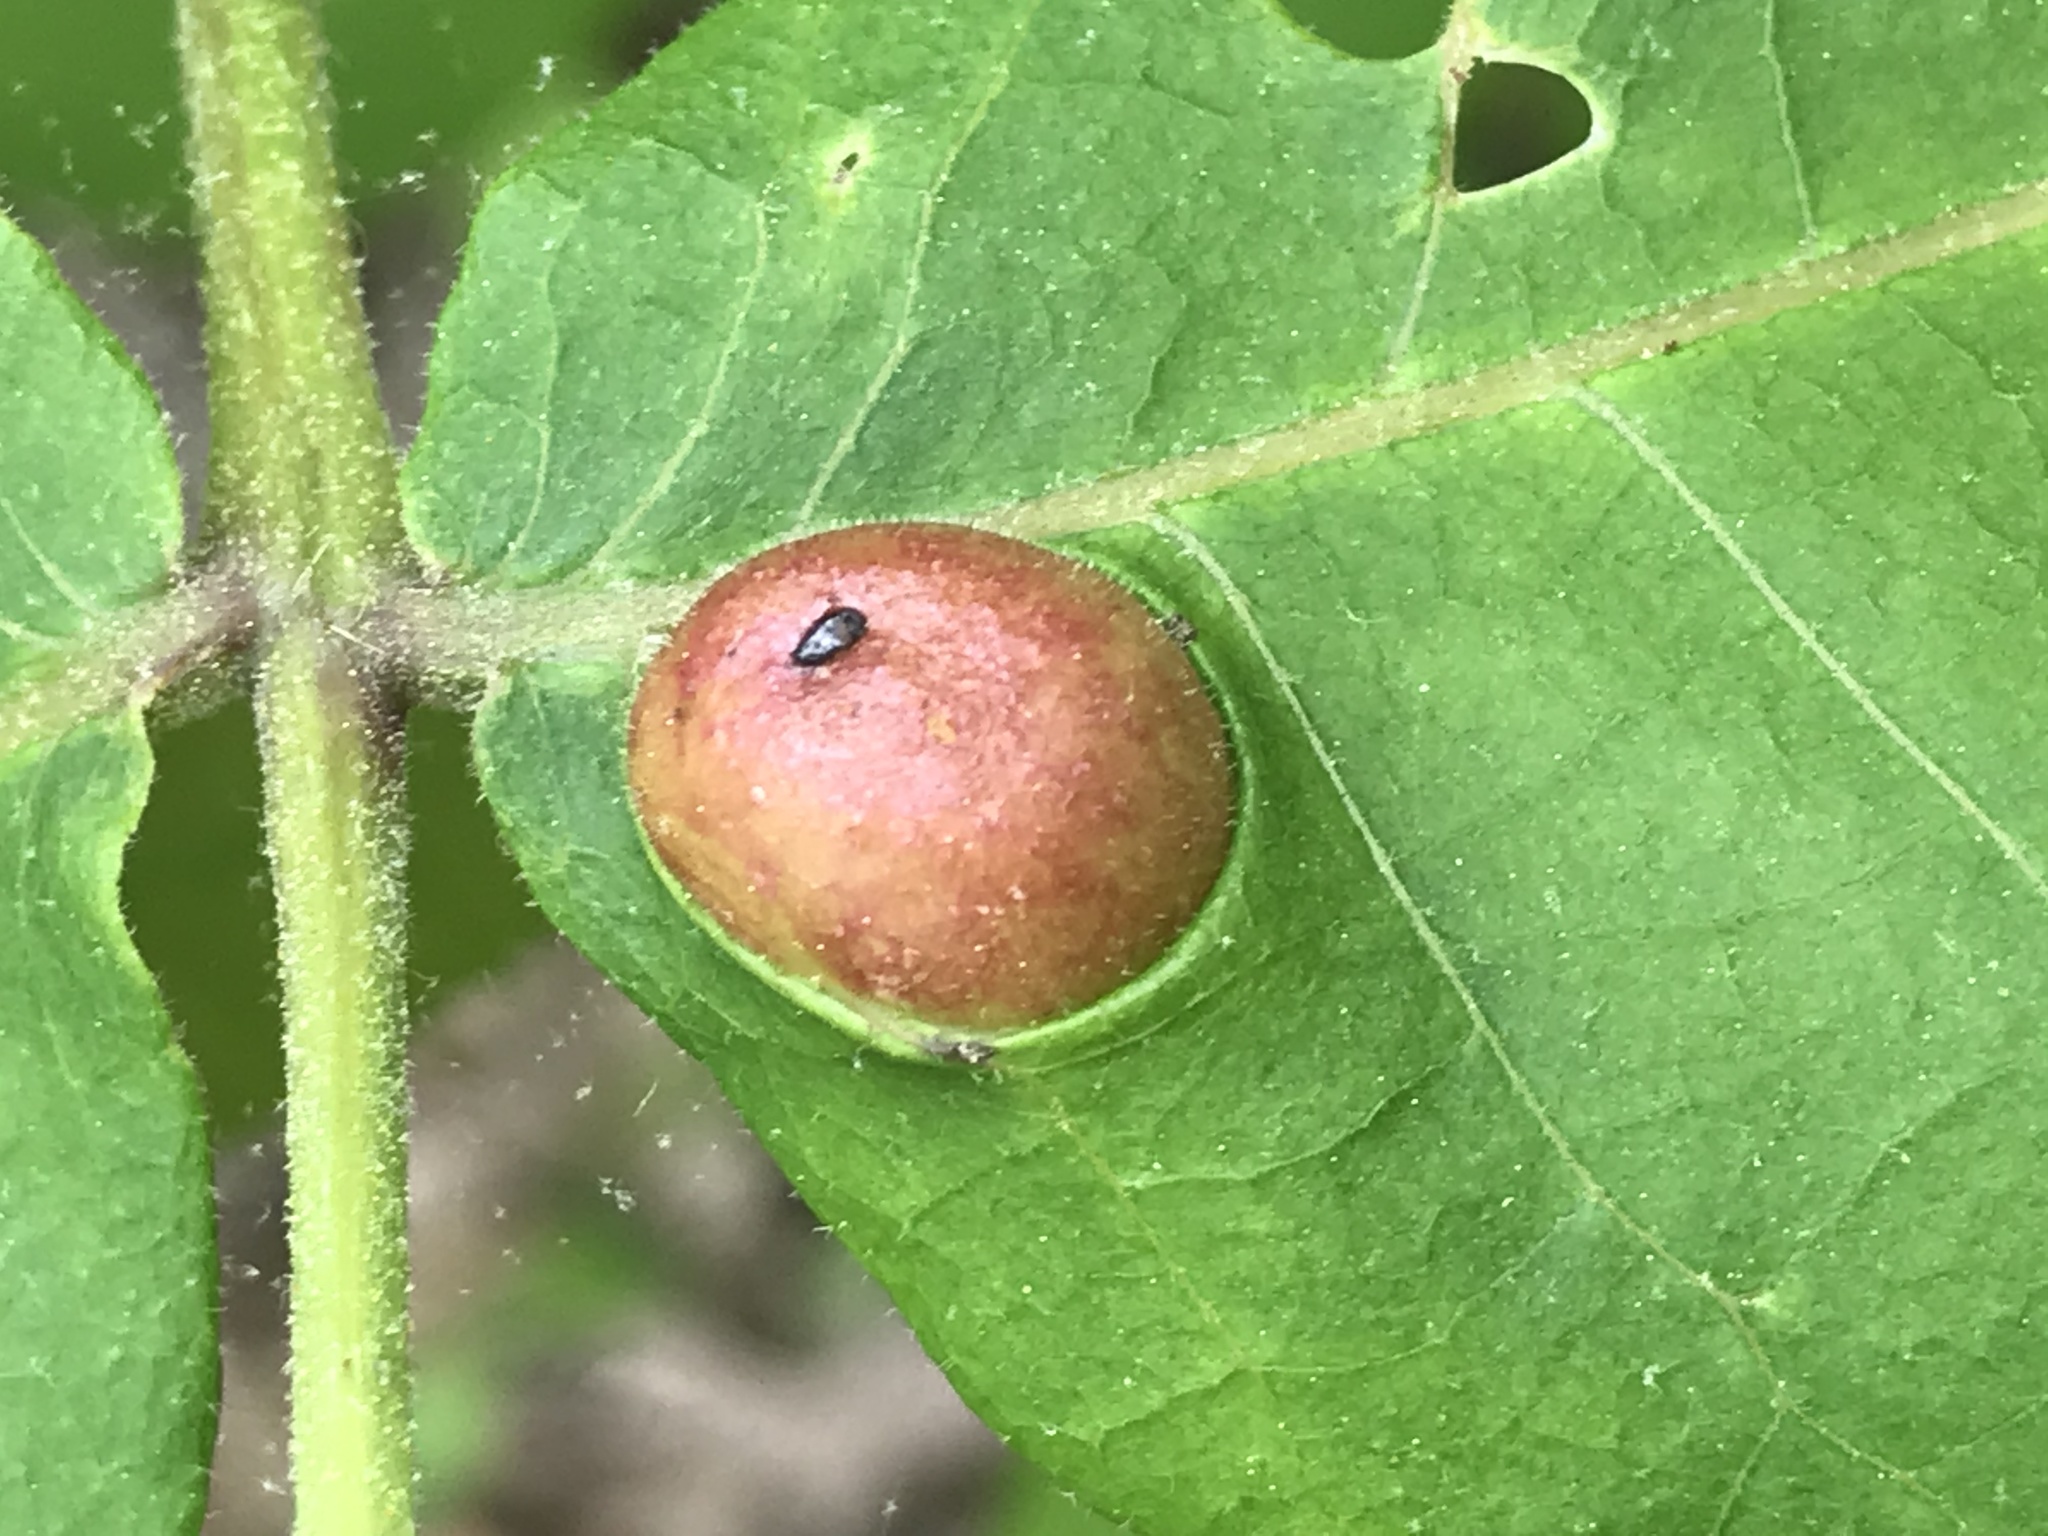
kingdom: Animalia
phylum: Arthropoda
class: Insecta
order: Hemiptera
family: Phylloxeridae
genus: Phylloxera
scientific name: Phylloxera caryae-scissa
